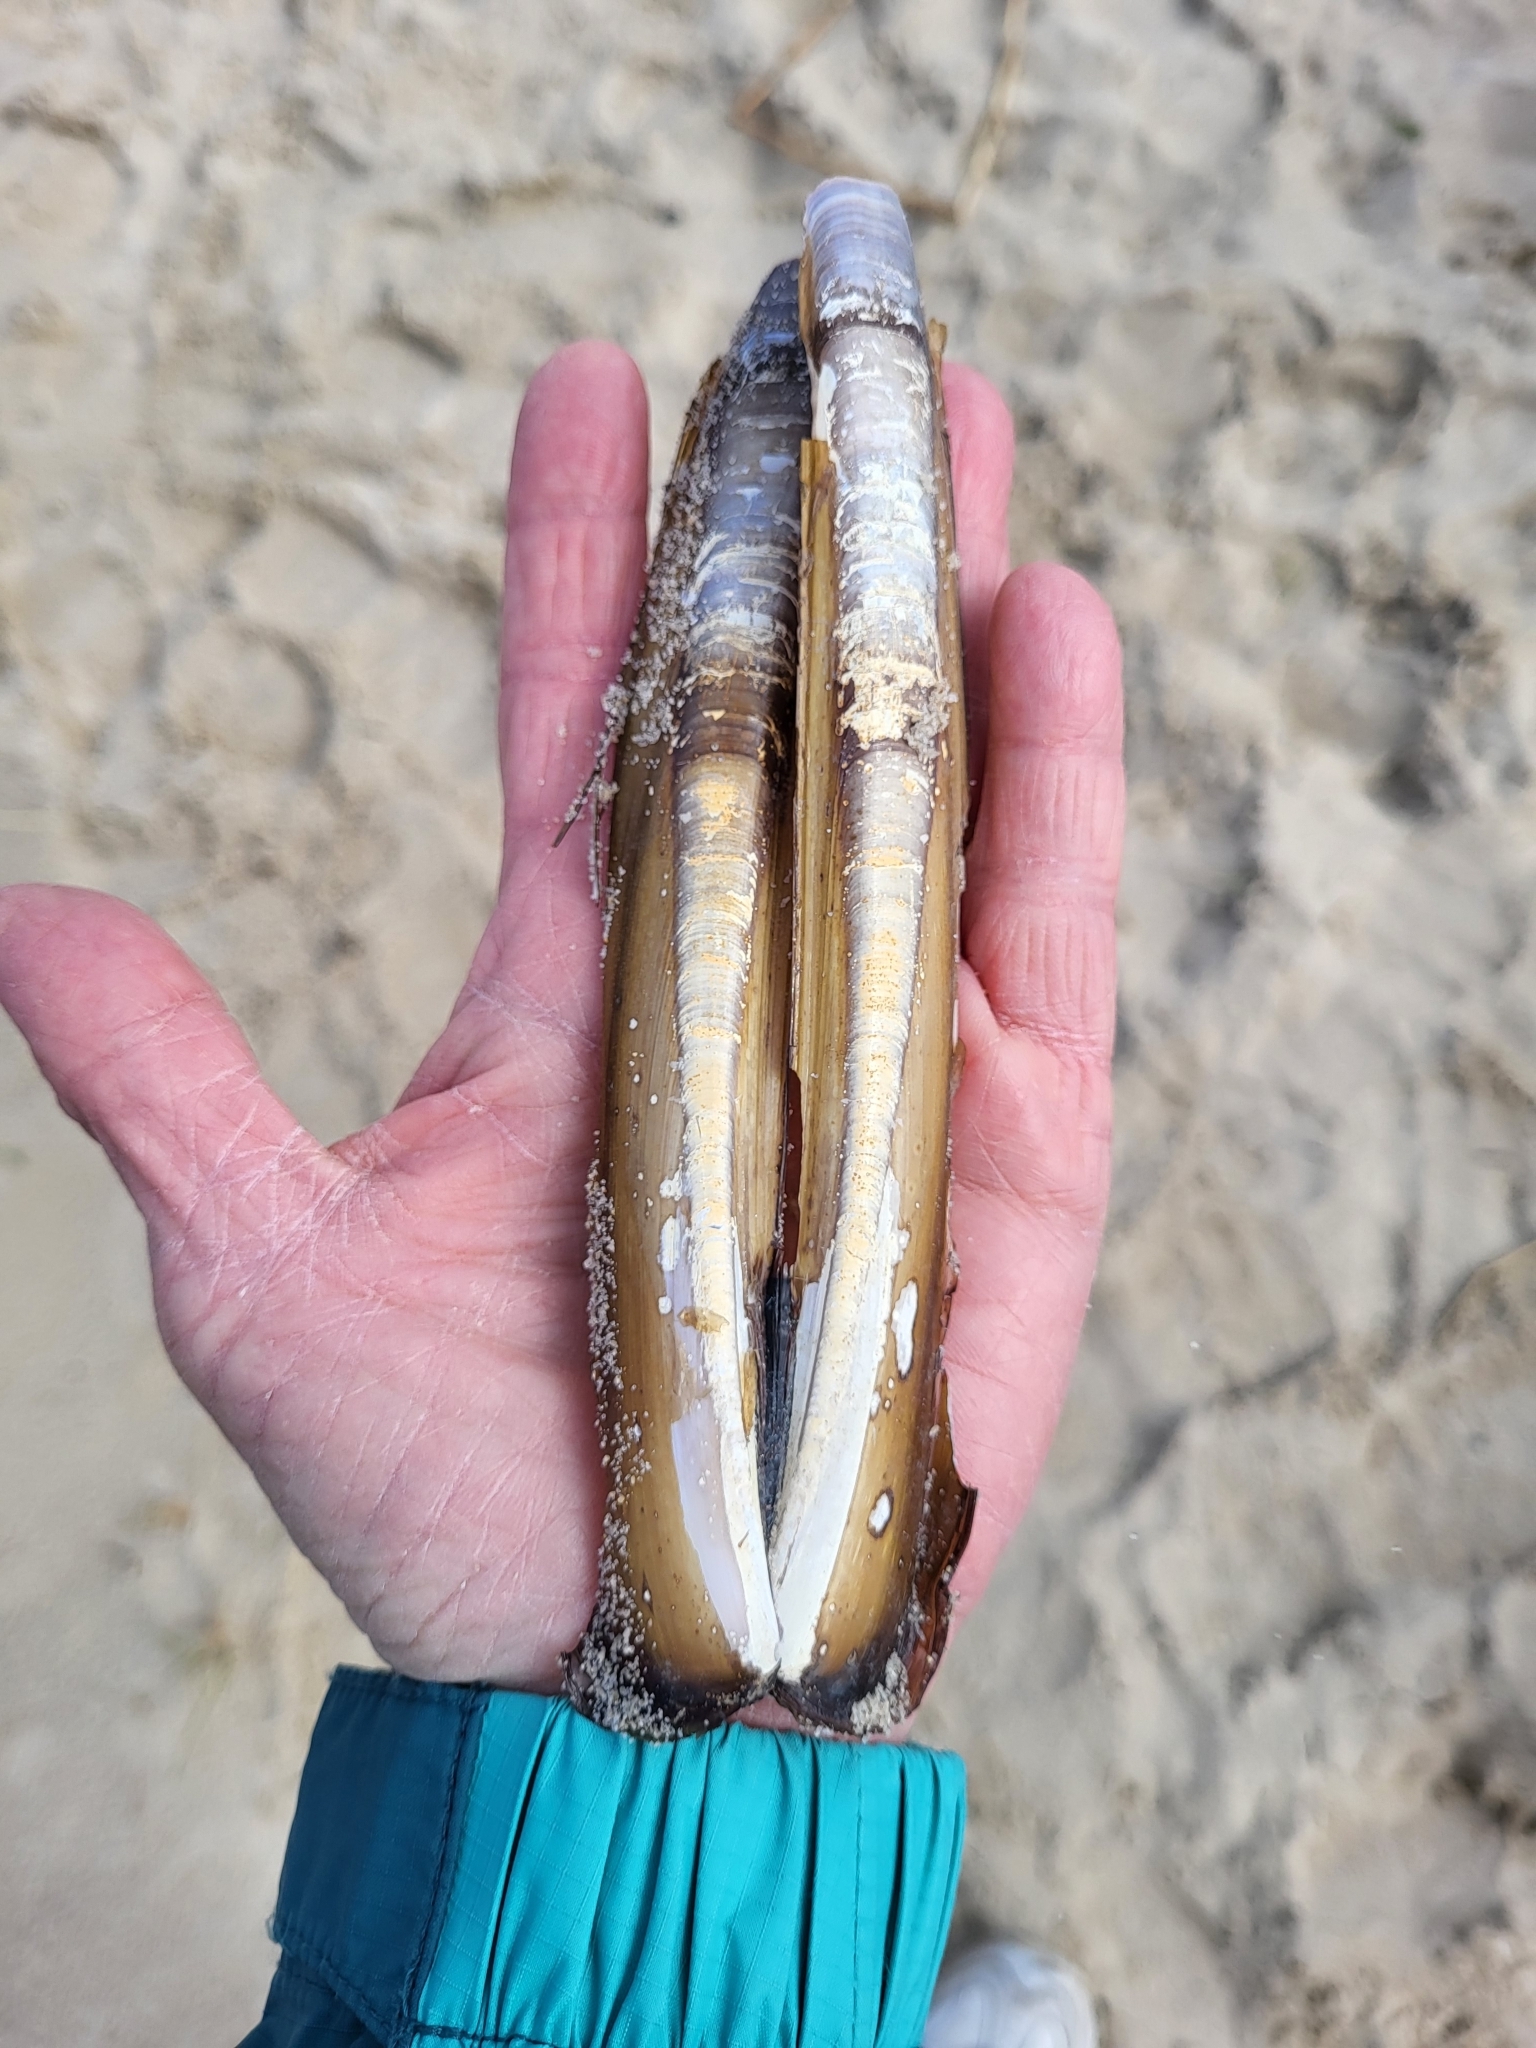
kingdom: Animalia
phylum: Mollusca
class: Bivalvia
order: Adapedonta
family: Pharidae
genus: Ensis
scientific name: Ensis leei
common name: American jack knife clam
